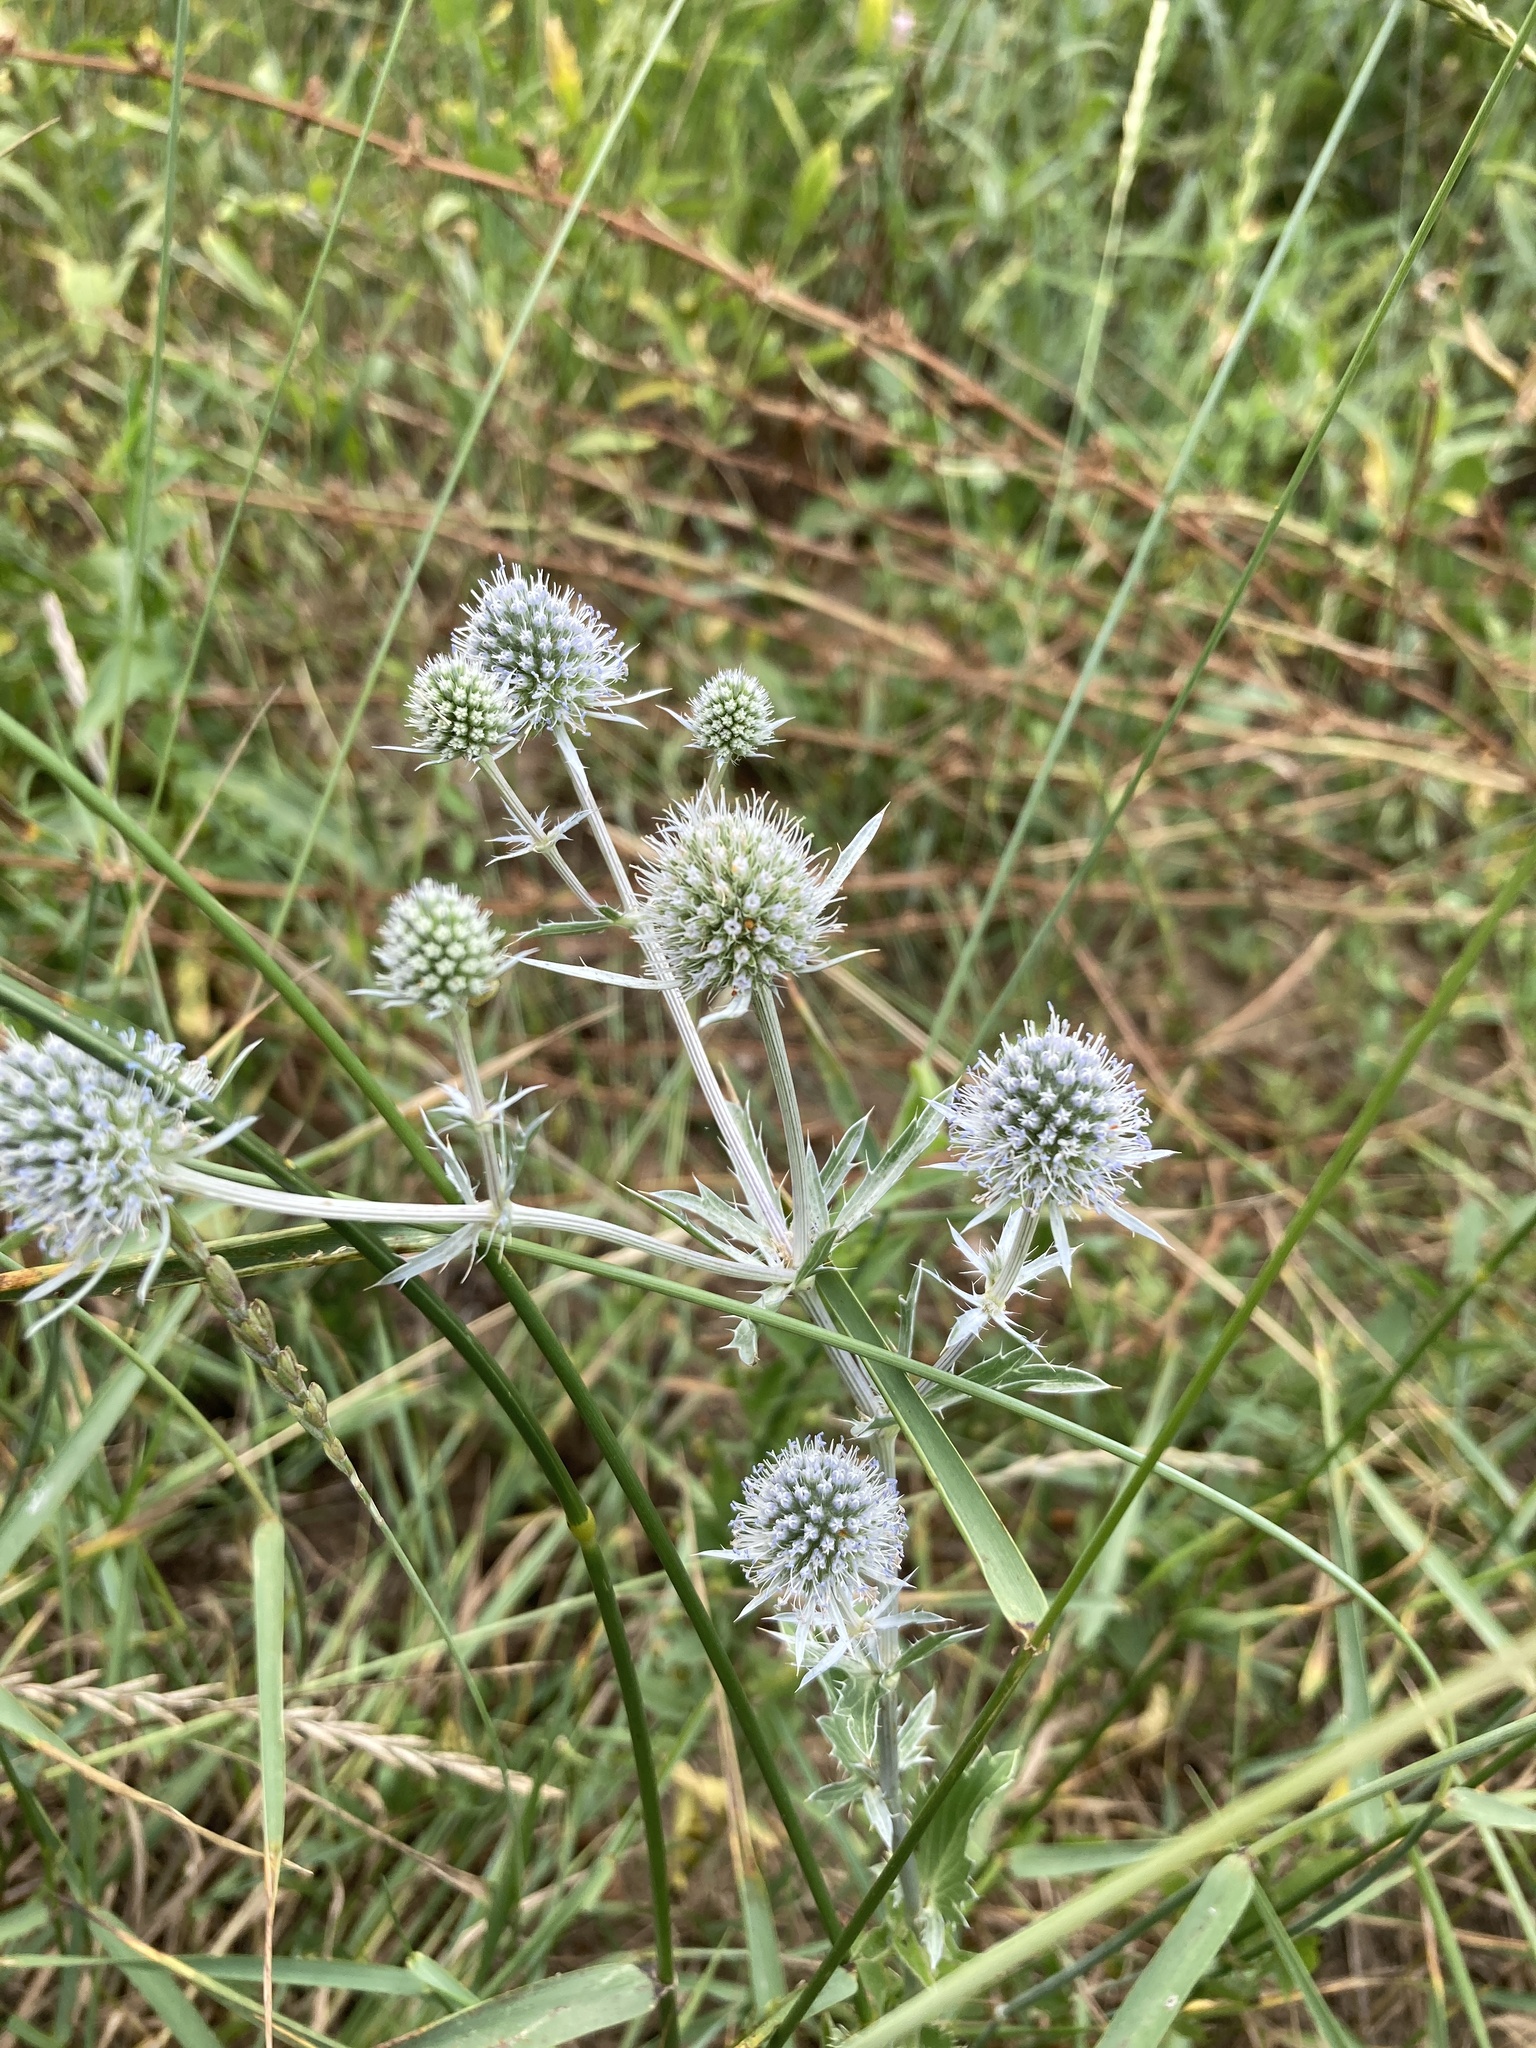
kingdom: Plantae
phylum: Tracheophyta
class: Magnoliopsida
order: Apiales
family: Apiaceae
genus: Eryngium
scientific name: Eryngium planum
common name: Blue eryngo
